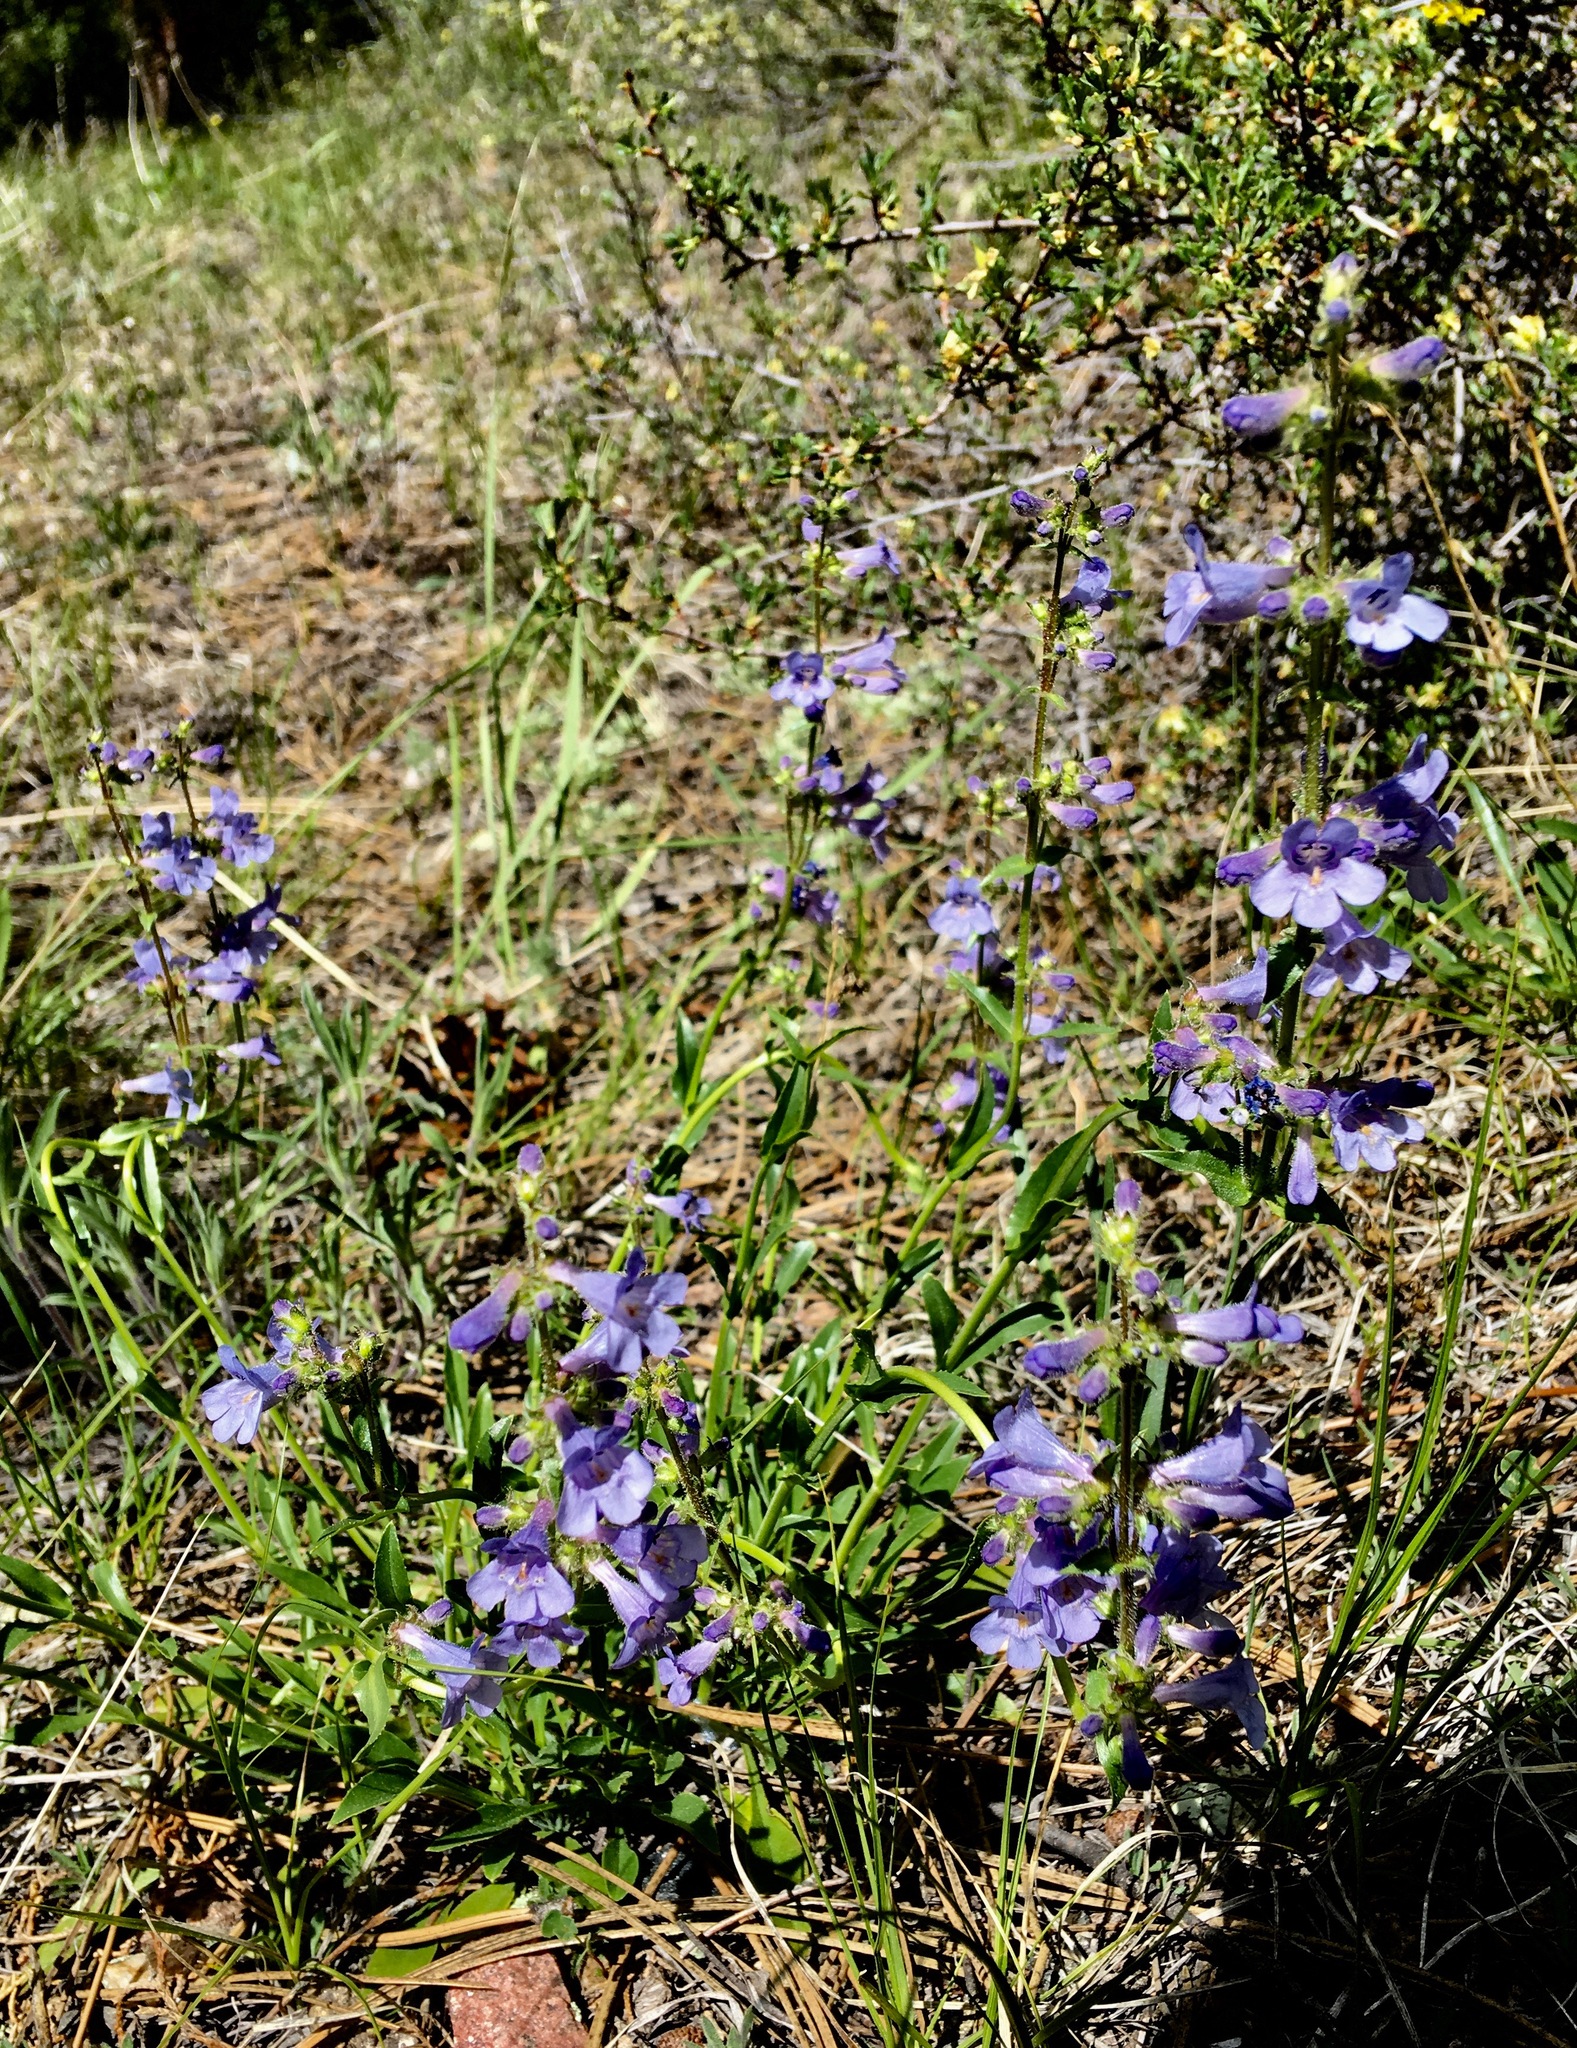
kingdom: Plantae
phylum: Tracheophyta
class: Magnoliopsida
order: Lamiales
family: Plantaginaceae
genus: Penstemon
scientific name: Penstemon virens
